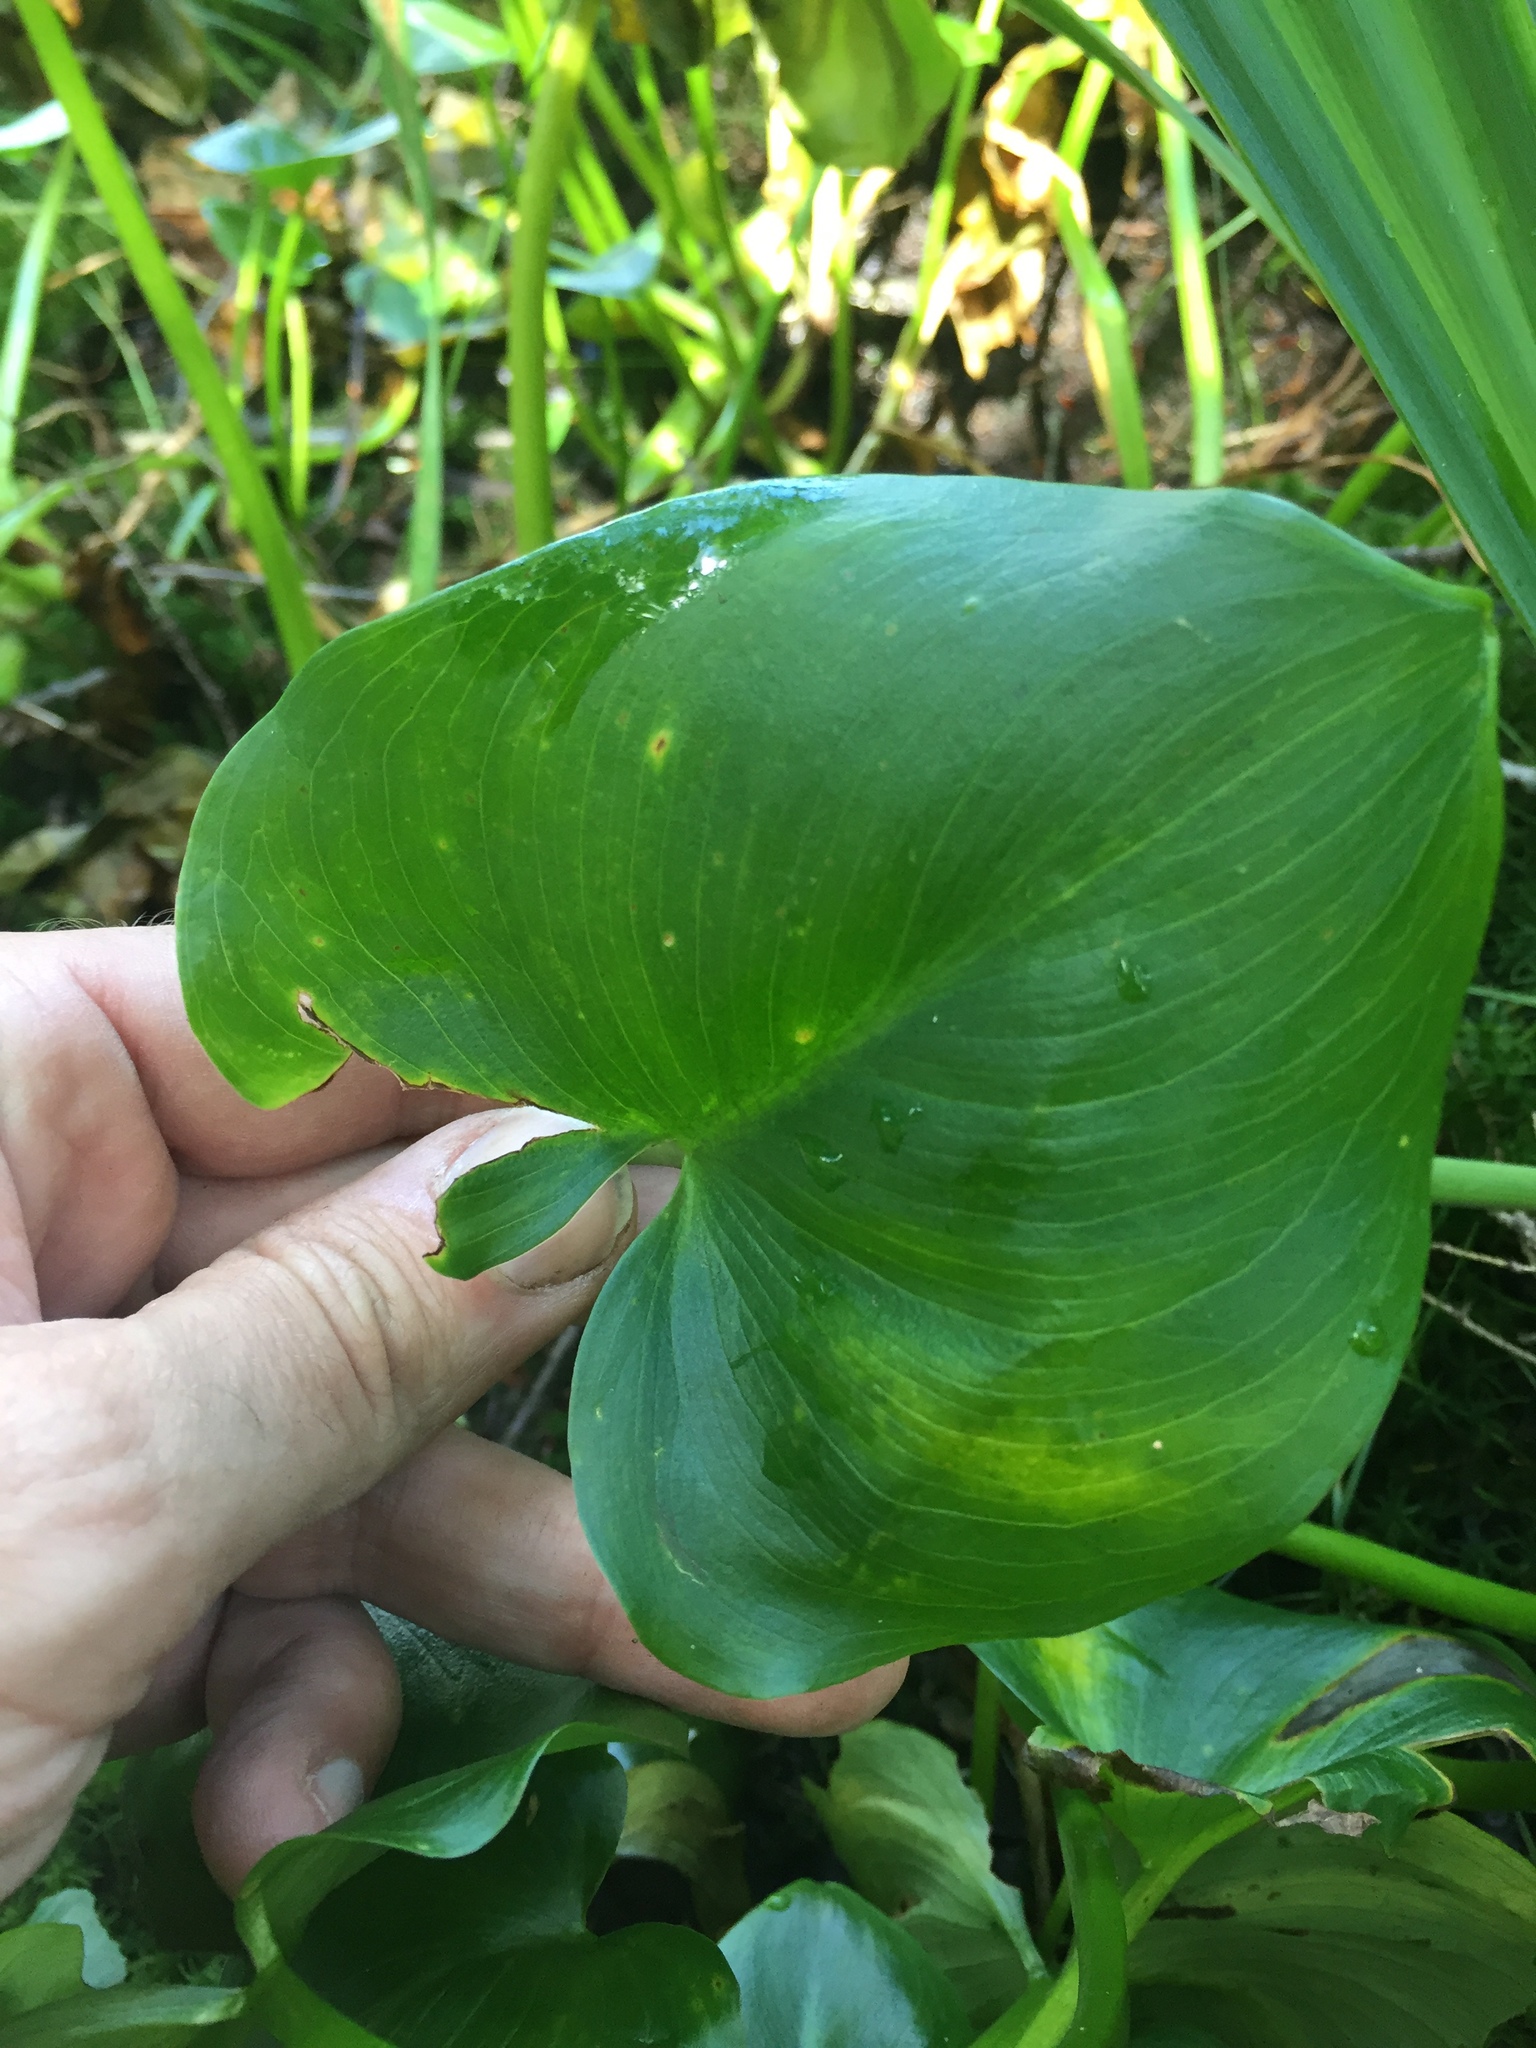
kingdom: Plantae
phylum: Tracheophyta
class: Liliopsida
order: Alismatales
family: Araceae
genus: Calla
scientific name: Calla palustris
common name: Bog arum
